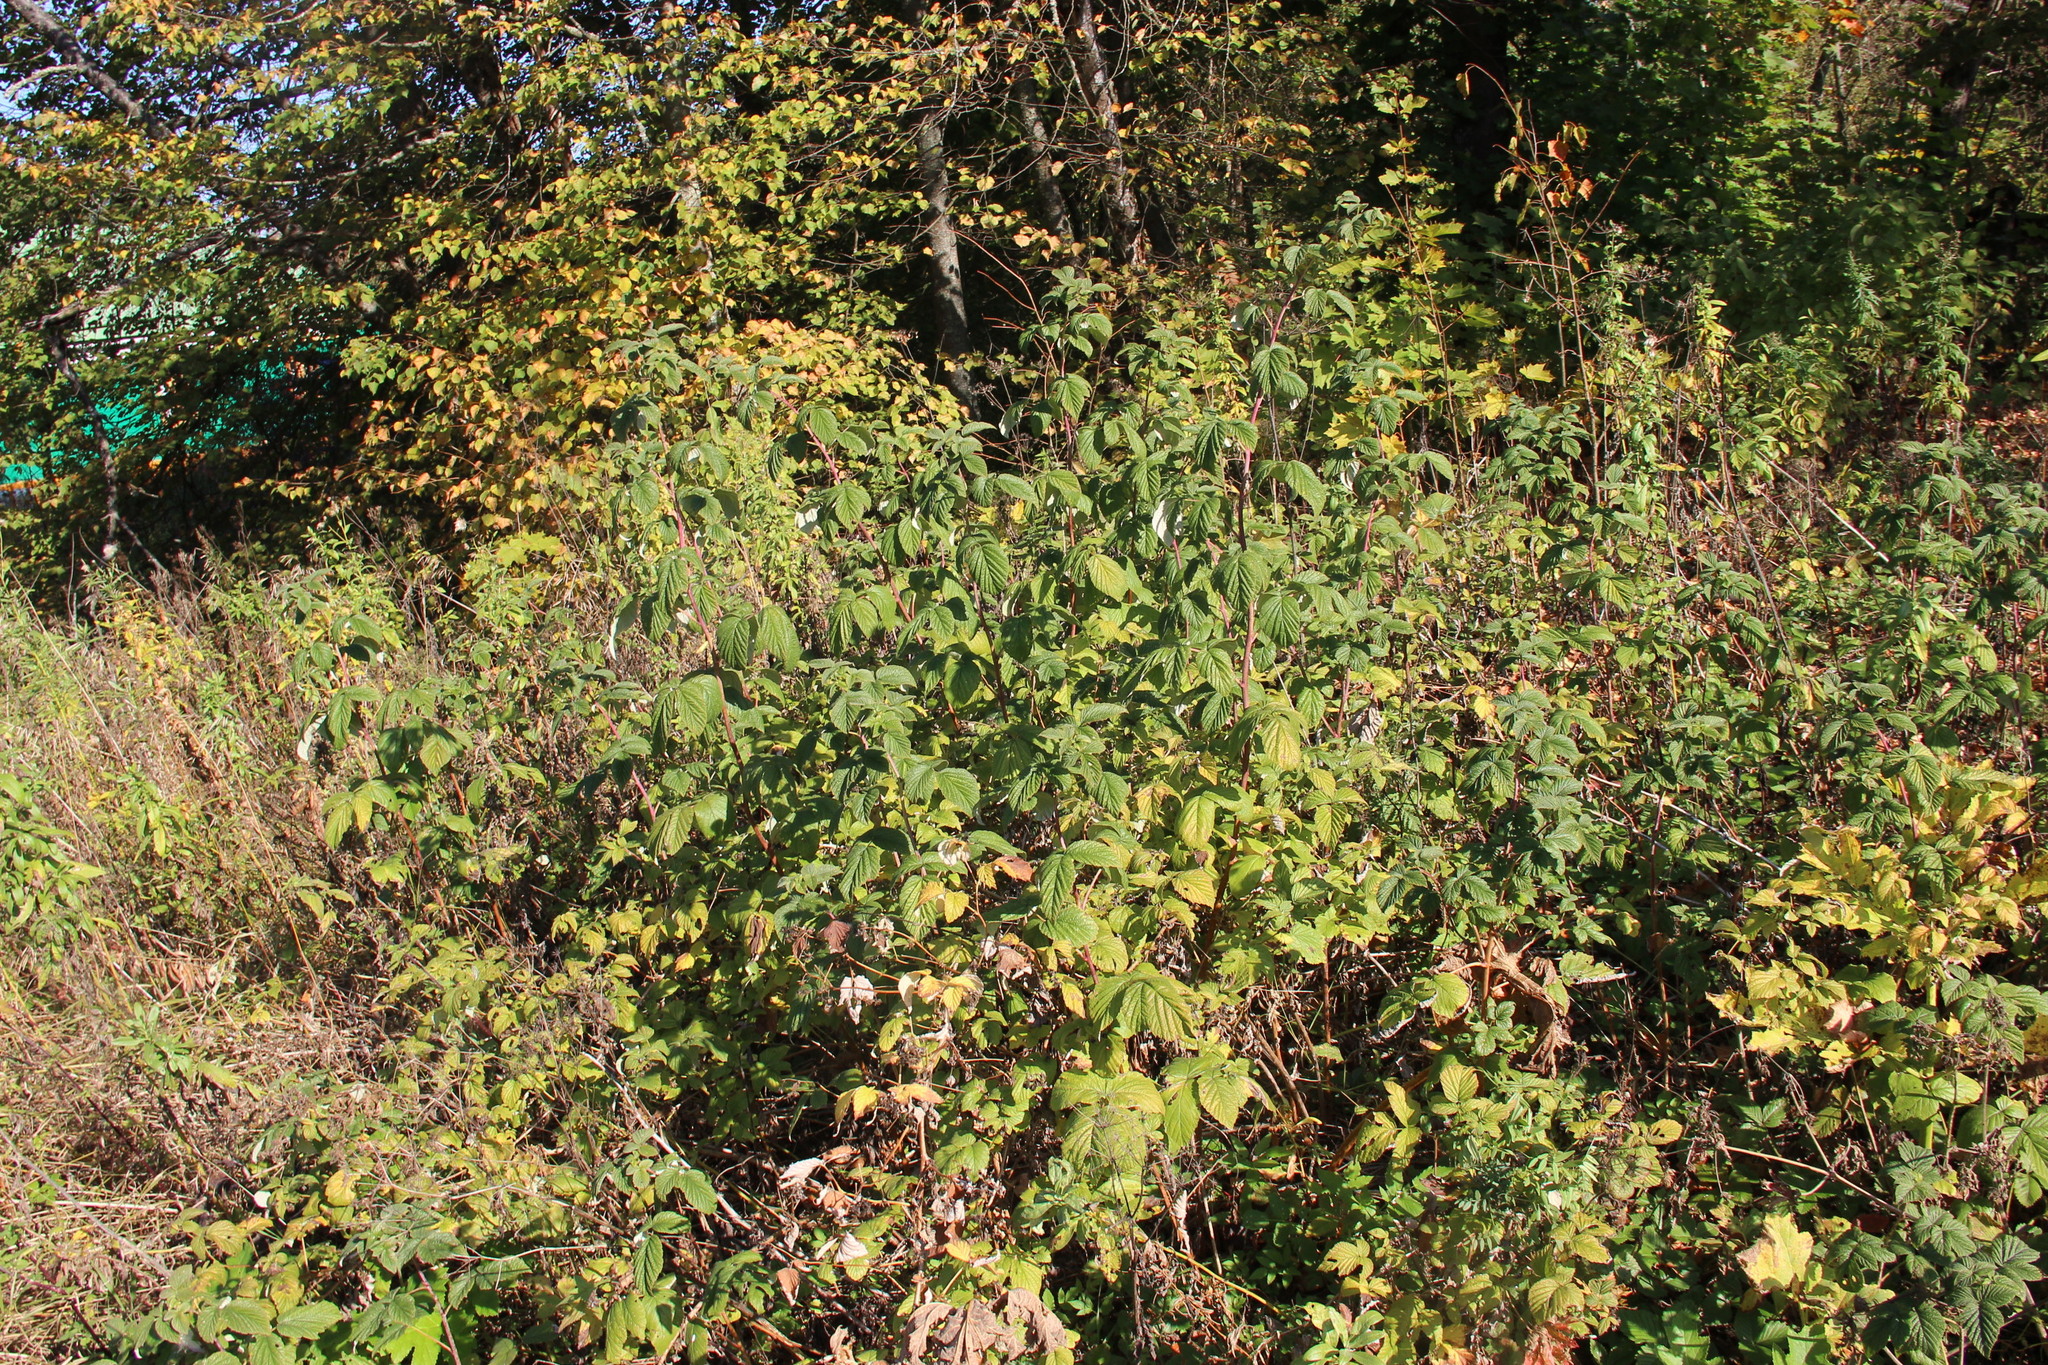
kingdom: Plantae
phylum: Tracheophyta
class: Magnoliopsida
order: Rosales
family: Rosaceae
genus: Rubus
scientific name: Rubus idaeus
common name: Raspberry
